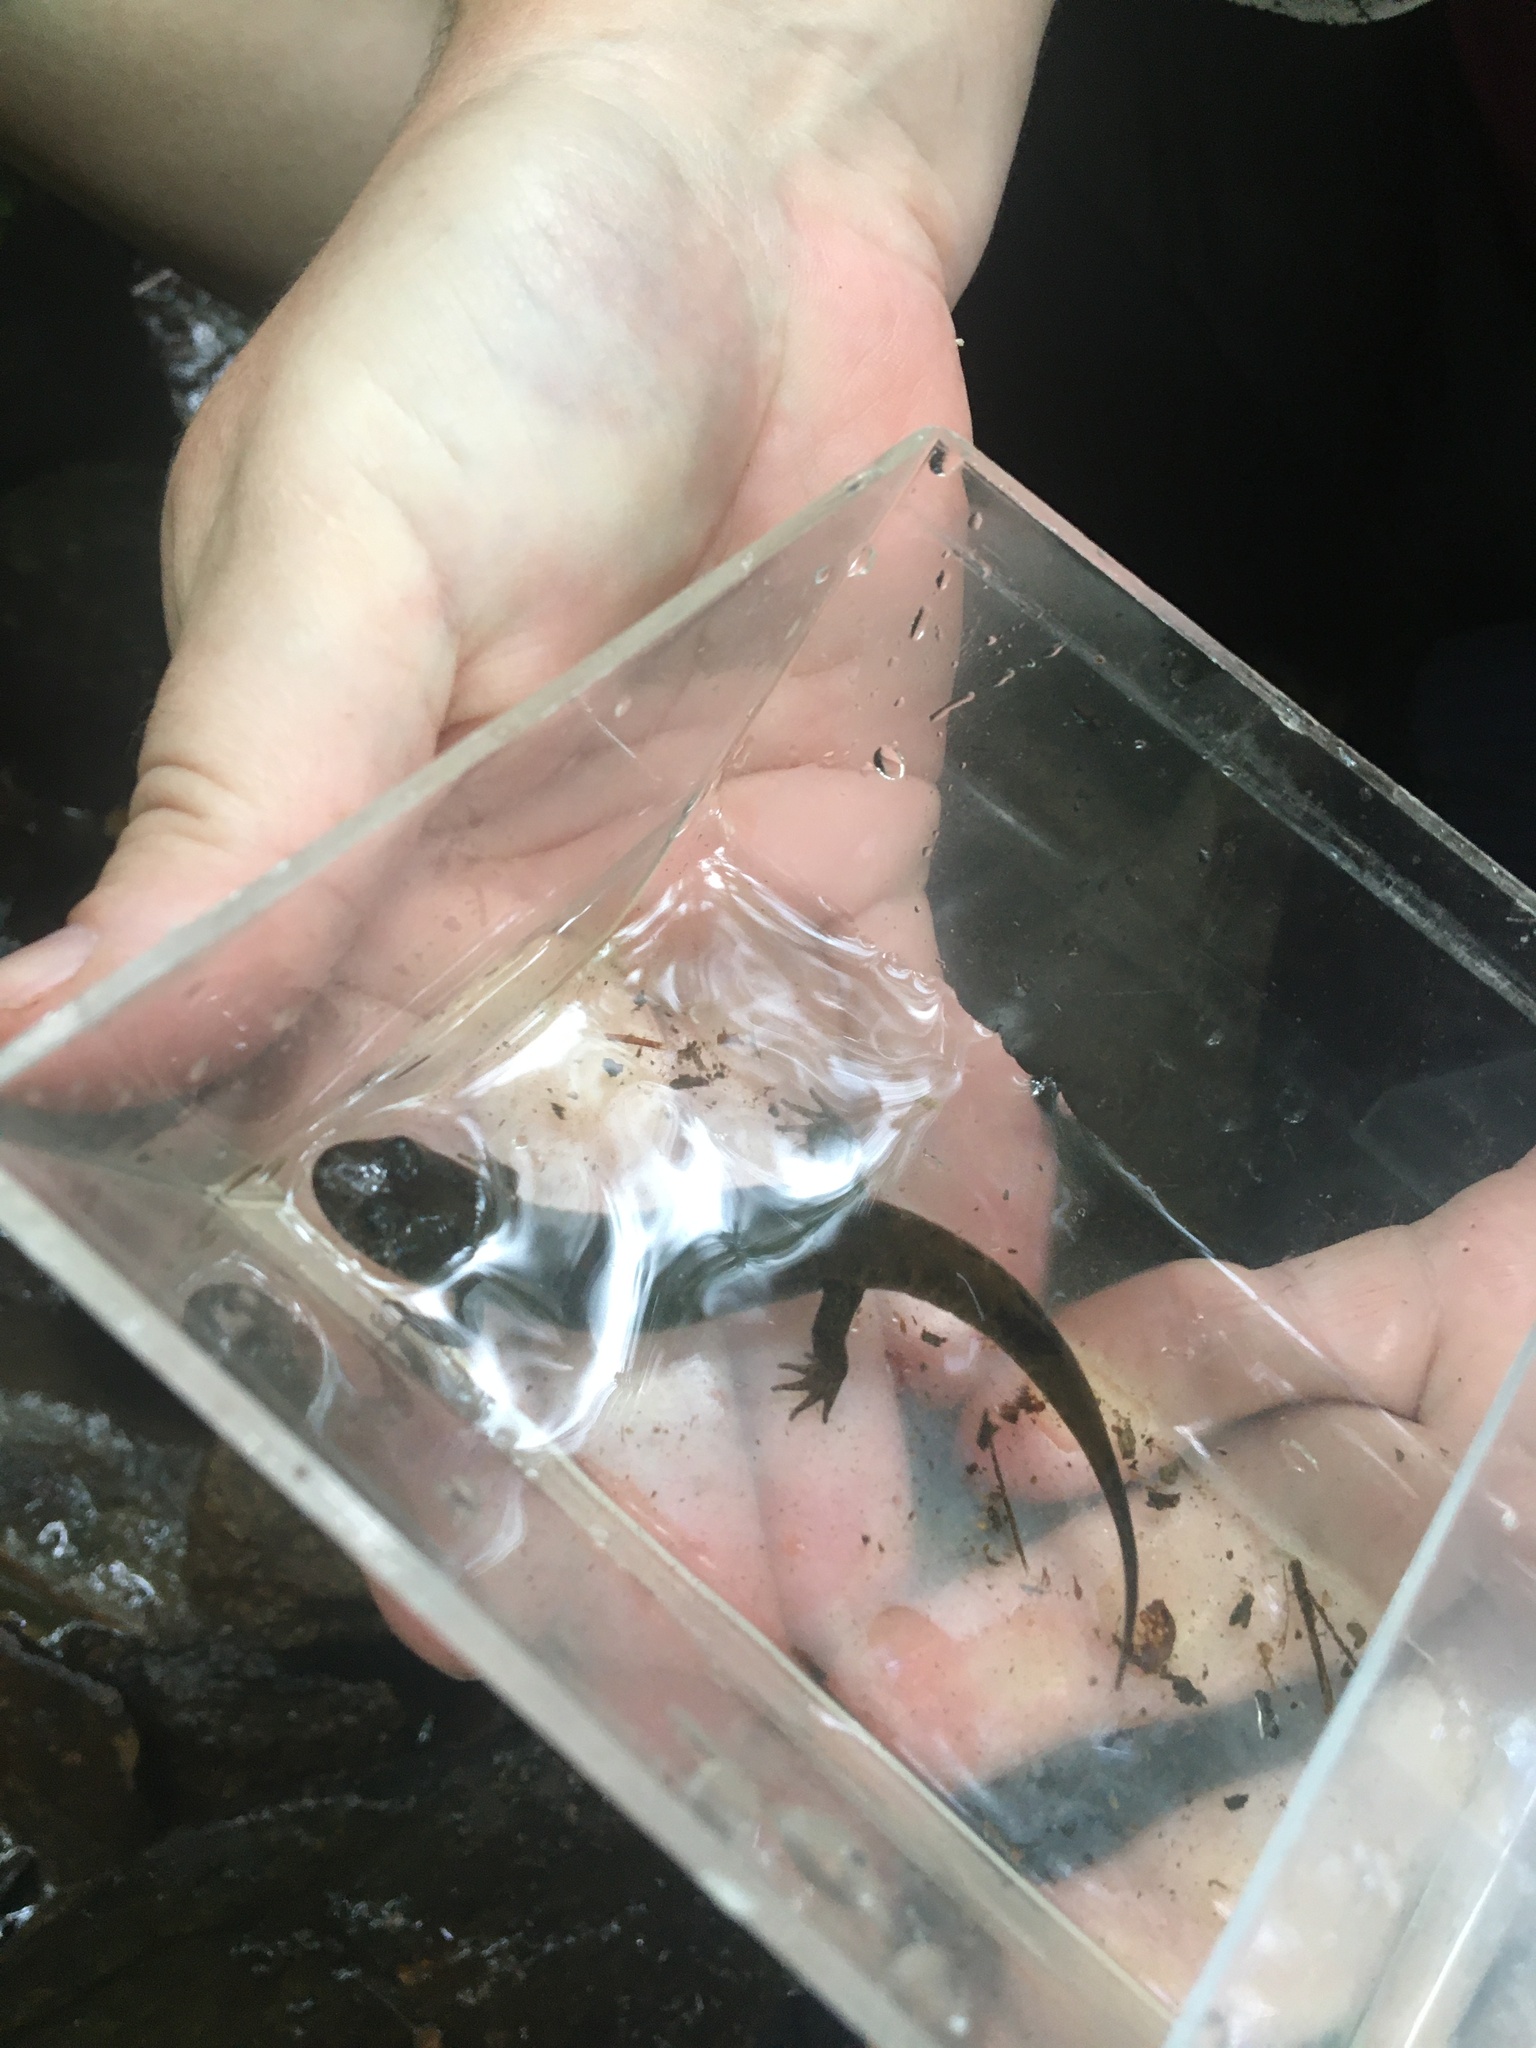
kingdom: Animalia
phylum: Chordata
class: Amphibia
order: Caudata
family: Plethodontidae
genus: Desmognathus
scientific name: Desmognathus
